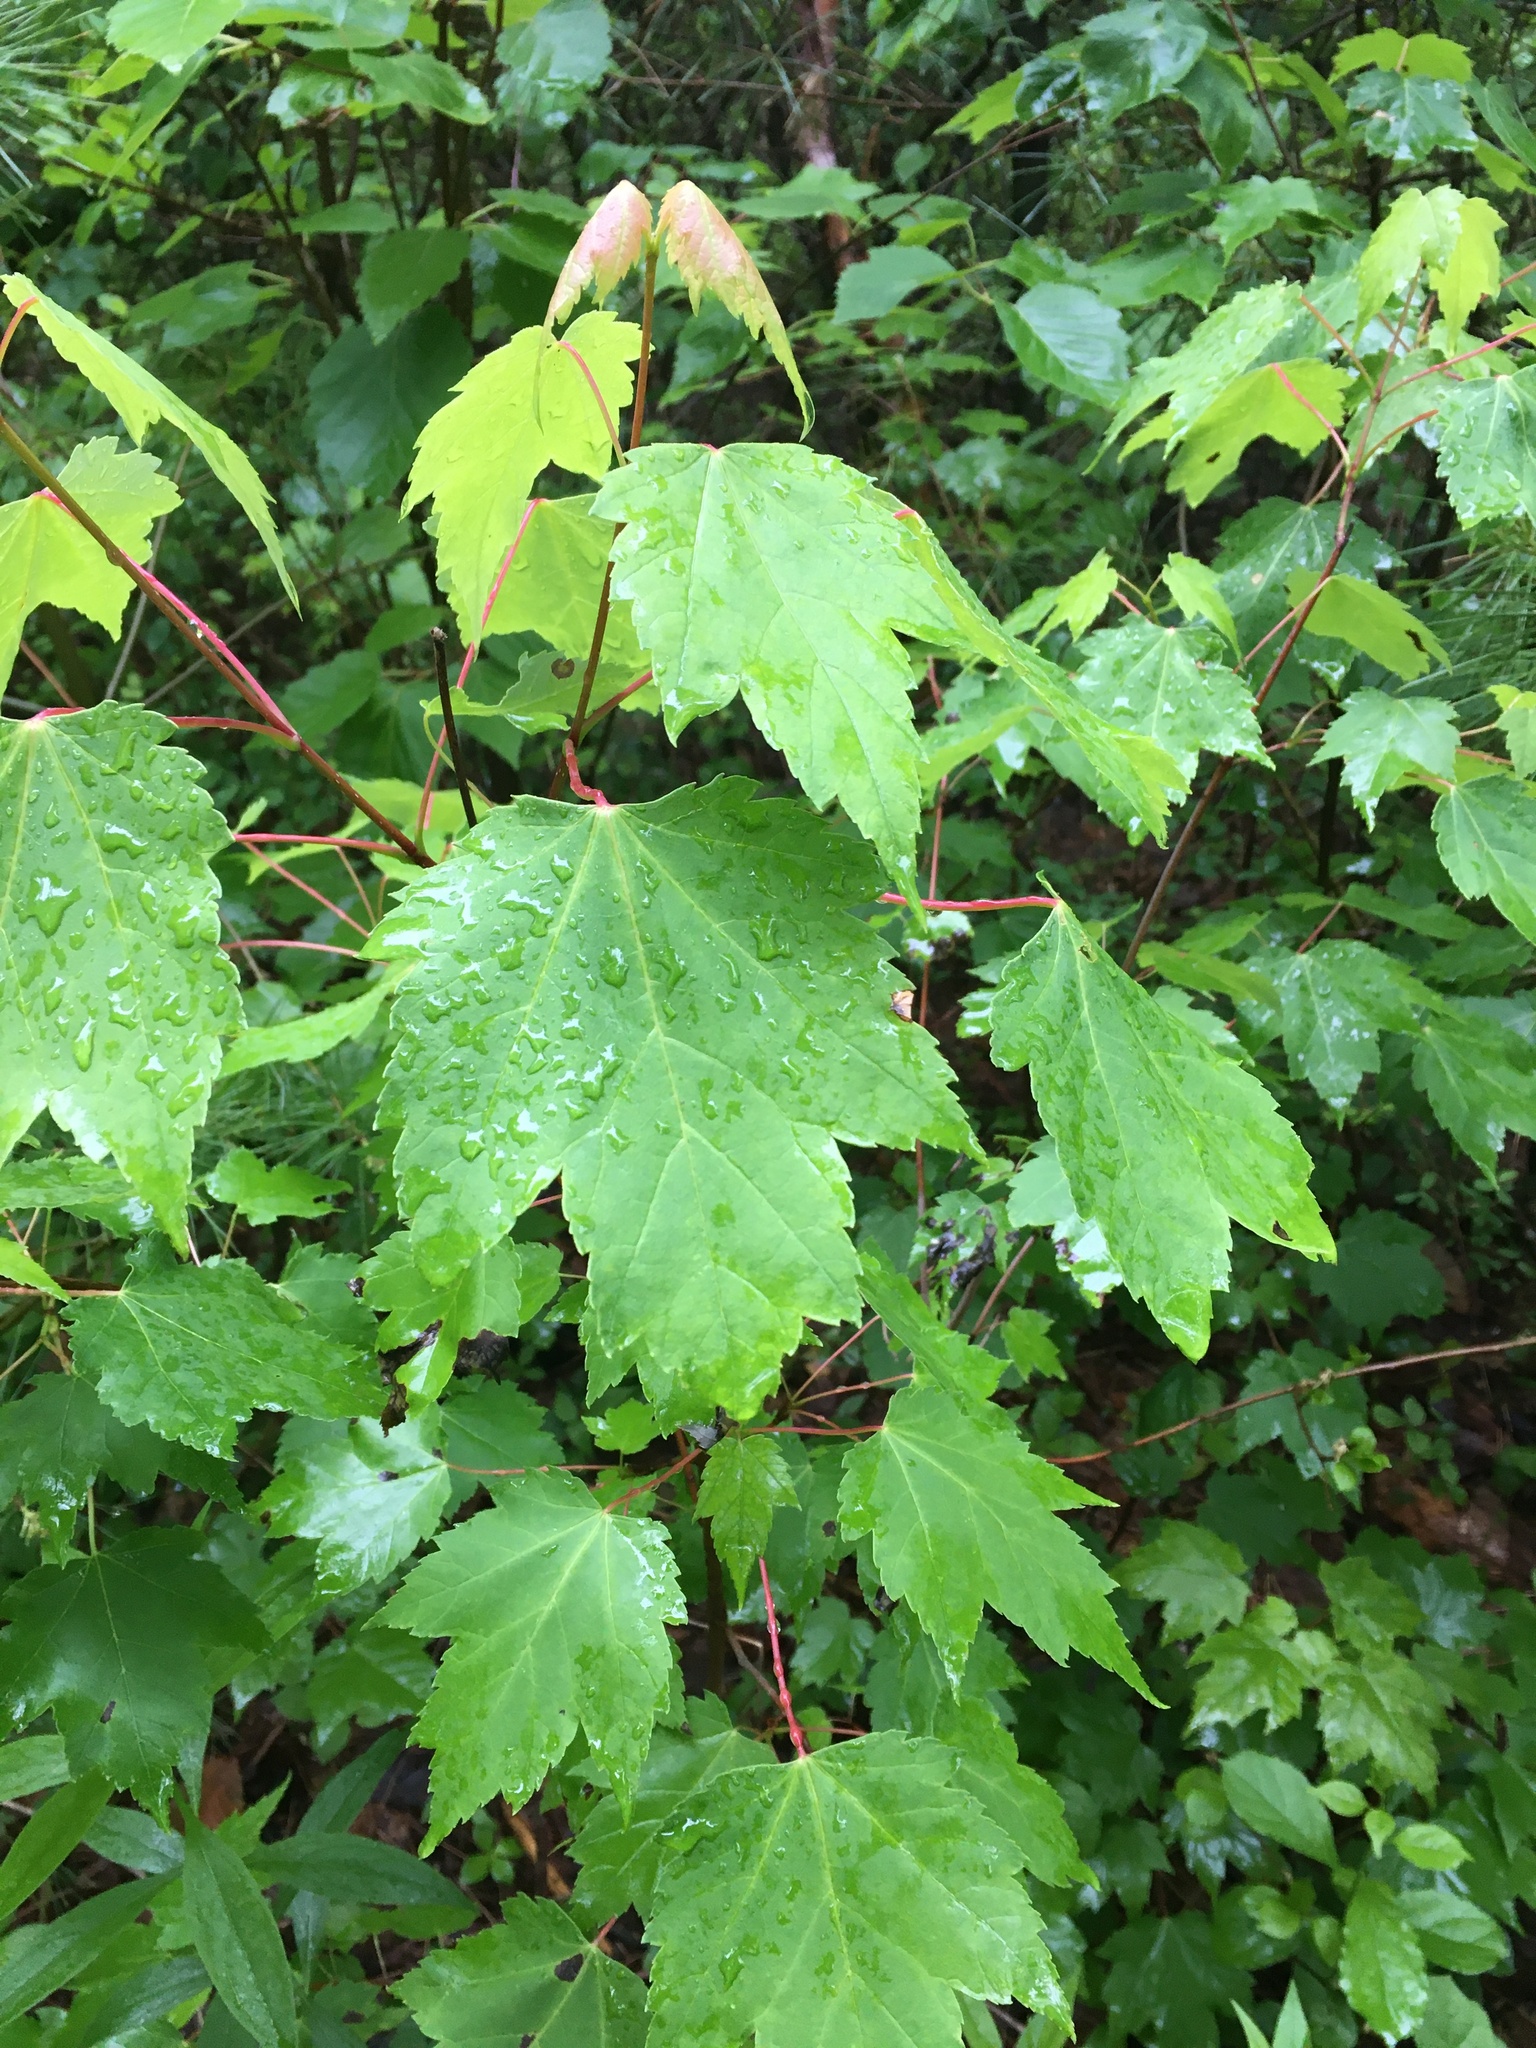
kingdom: Plantae
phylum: Tracheophyta
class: Magnoliopsida
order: Sapindales
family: Sapindaceae
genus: Acer
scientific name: Acer rubrum
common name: Red maple
